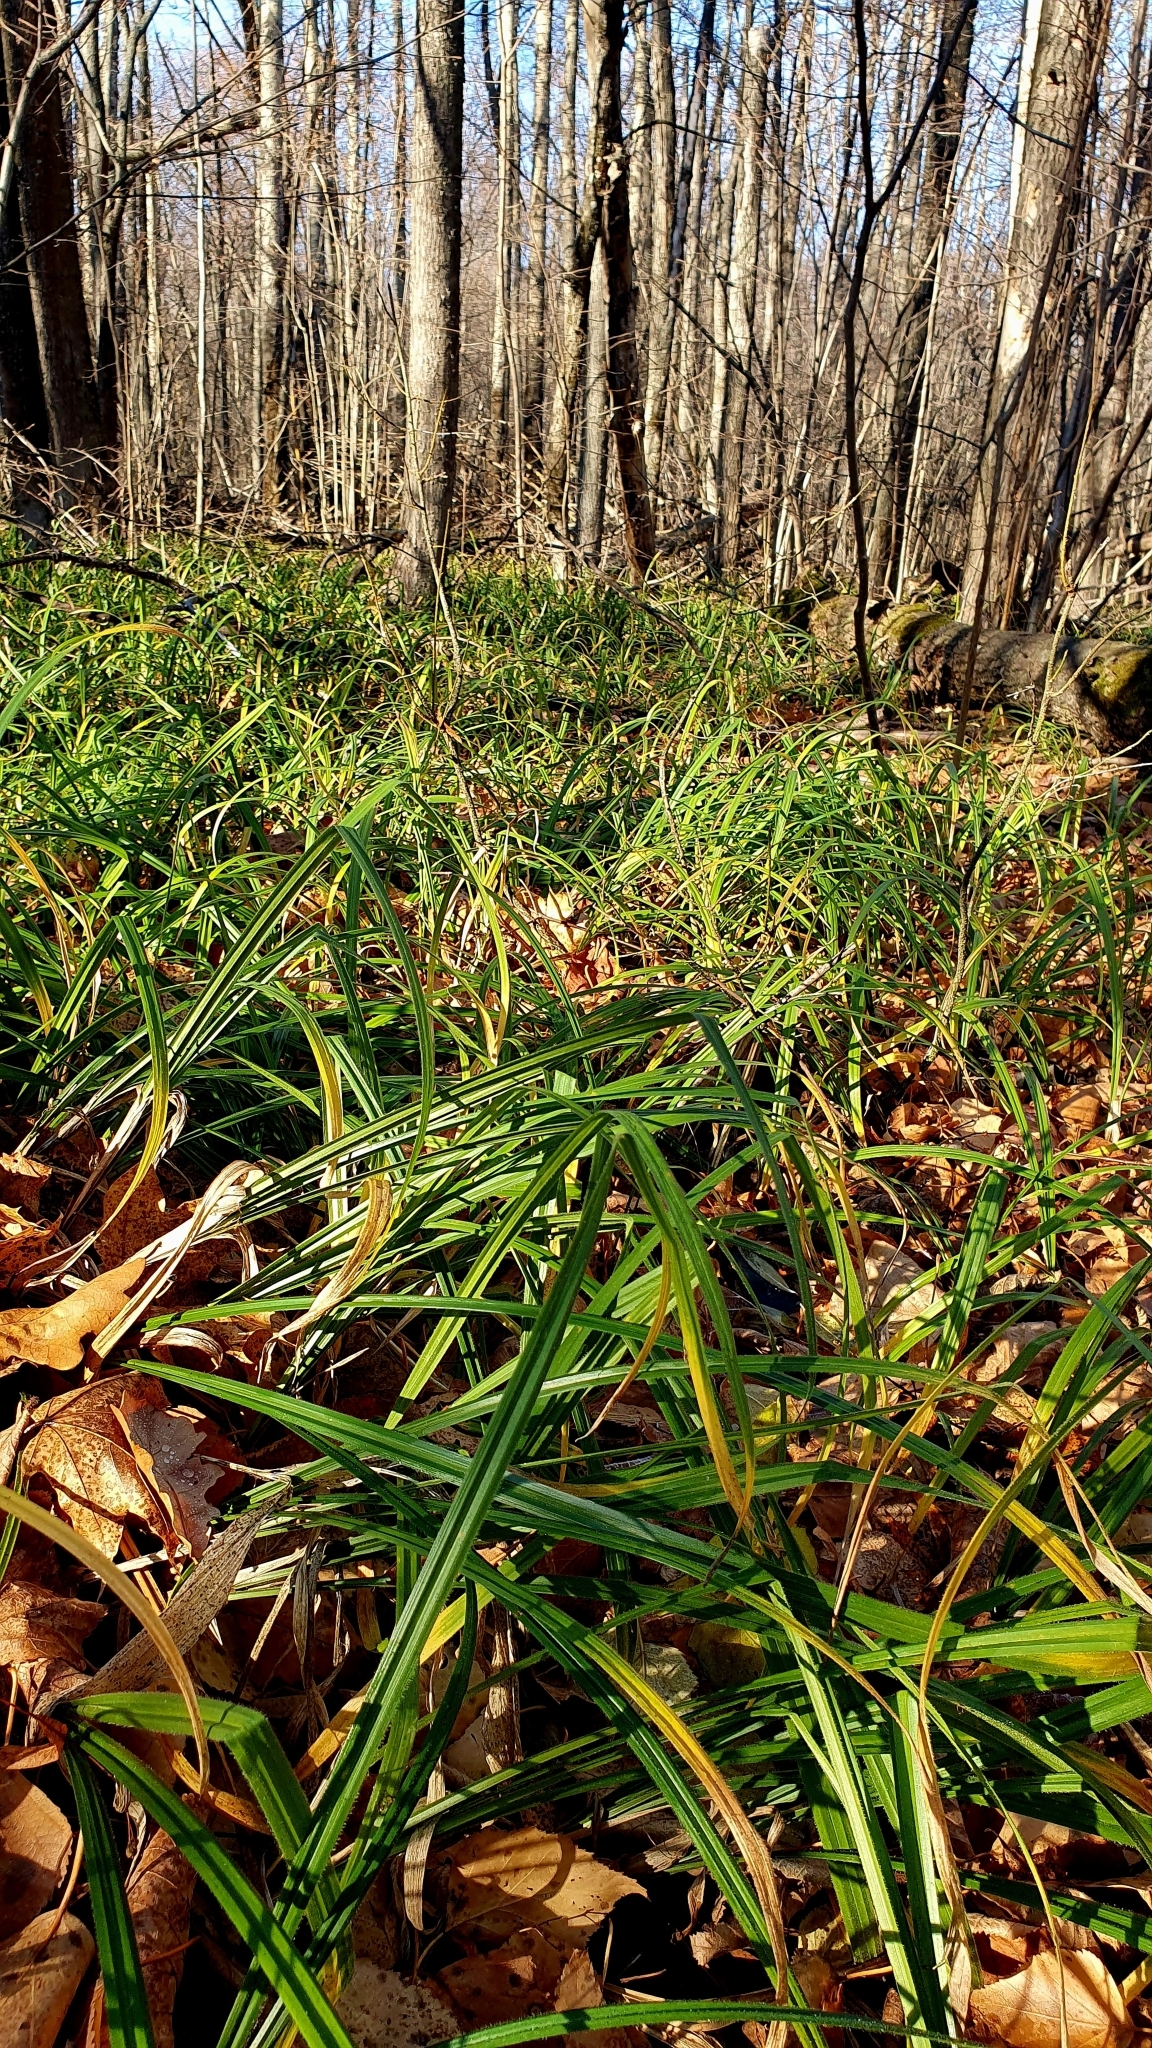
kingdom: Plantae
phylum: Tracheophyta
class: Liliopsida
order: Poales
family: Cyperaceae
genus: Carex
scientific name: Carex pilosa
